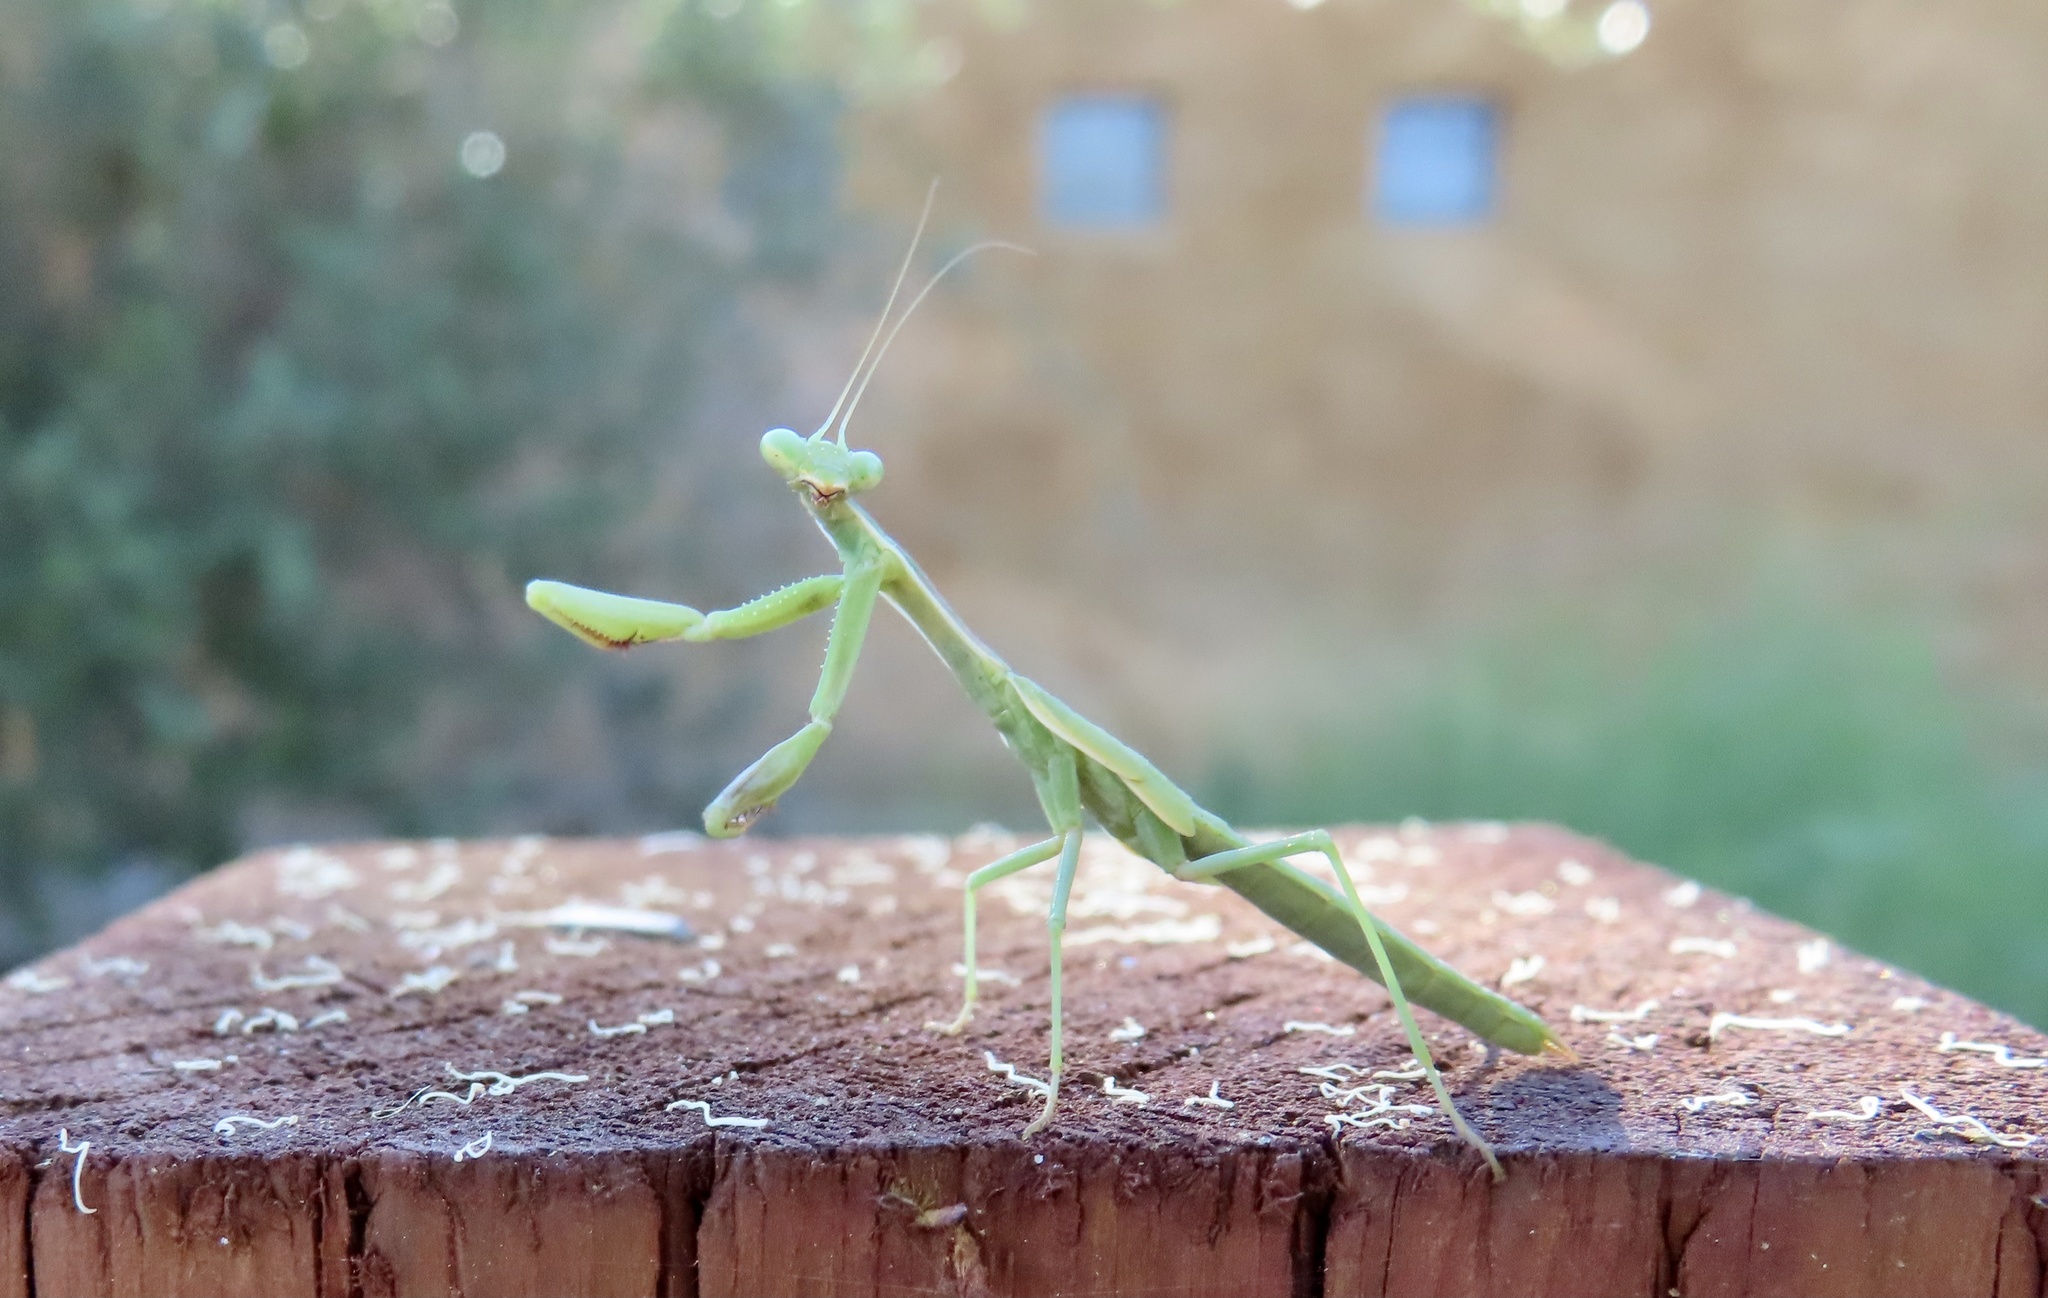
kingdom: Animalia
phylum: Arthropoda
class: Insecta
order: Mantodea
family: Eremiaphilidae
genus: Iris
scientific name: Iris oratoria
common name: Mediterranean mantis
